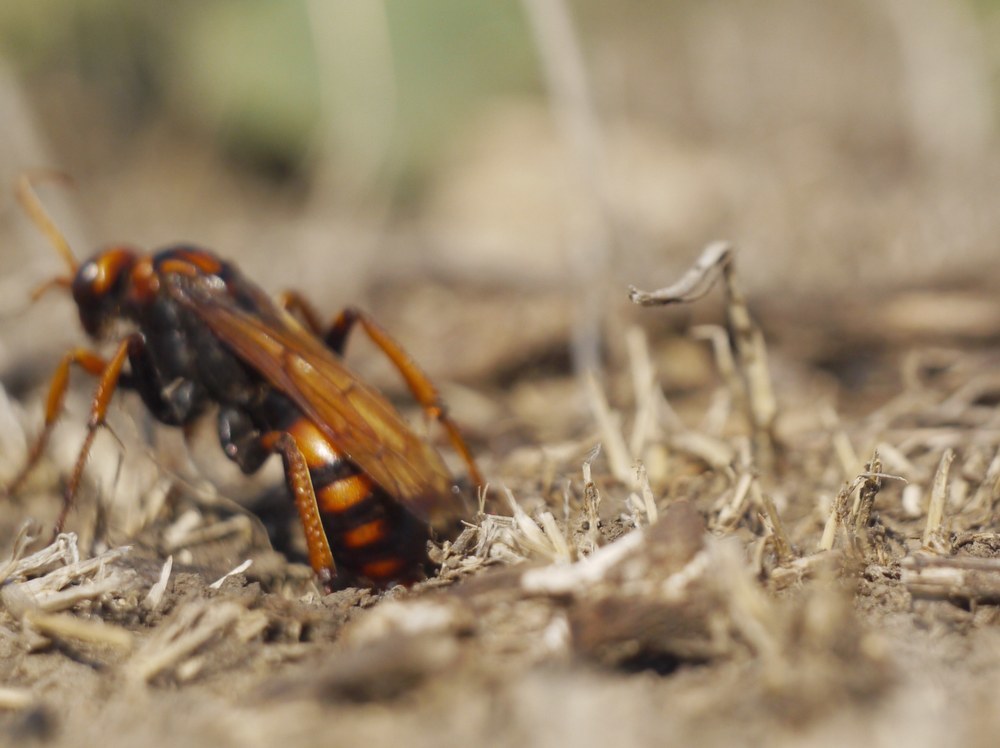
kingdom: Animalia
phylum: Arthropoda
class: Insecta
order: Hymenoptera
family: Pompilidae
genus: Cryptocheilus
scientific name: Cryptocheilus rubellus
